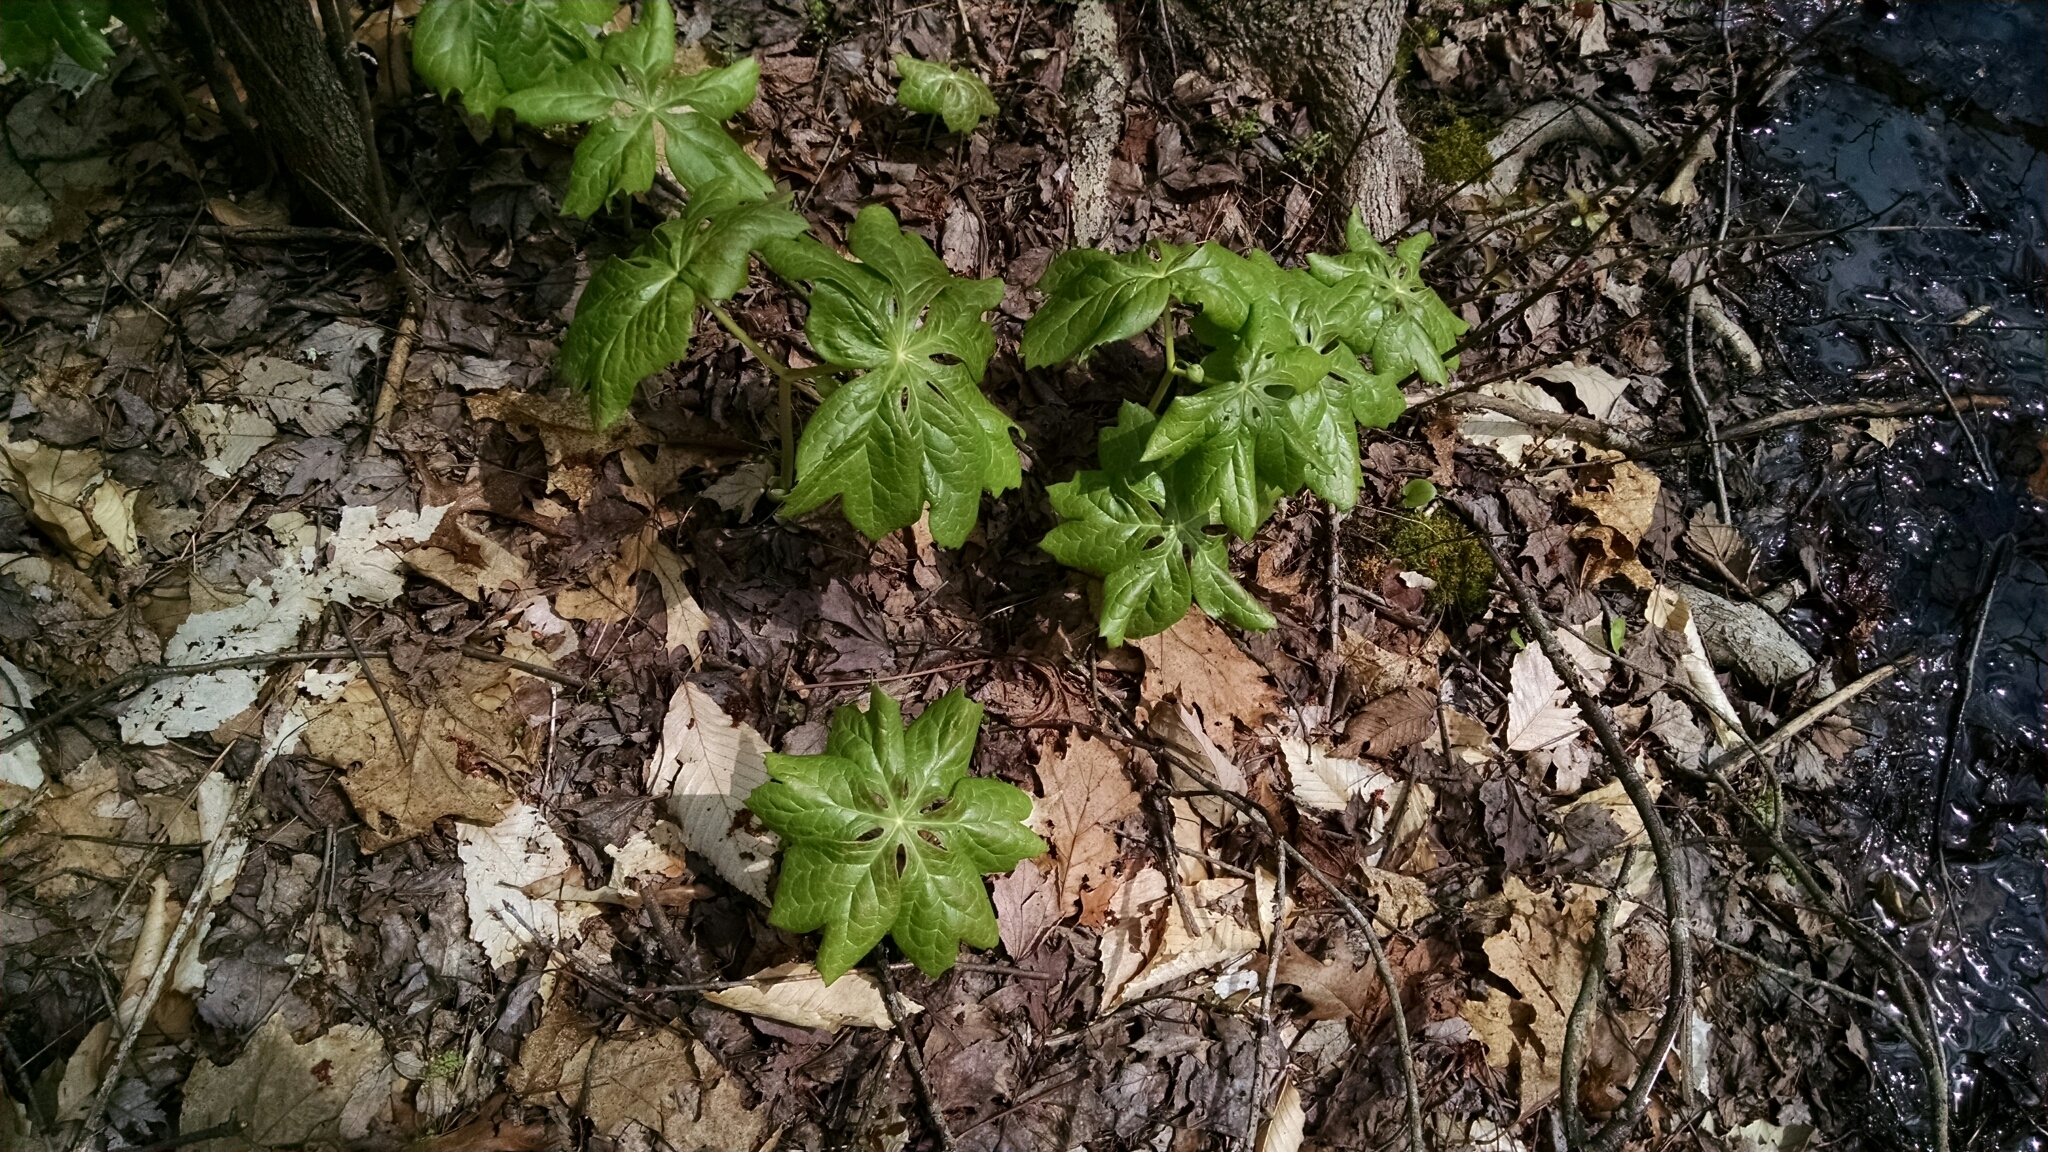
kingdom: Plantae
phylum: Tracheophyta
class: Magnoliopsida
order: Ranunculales
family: Berberidaceae
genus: Podophyllum
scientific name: Podophyllum peltatum
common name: Wild mandrake
